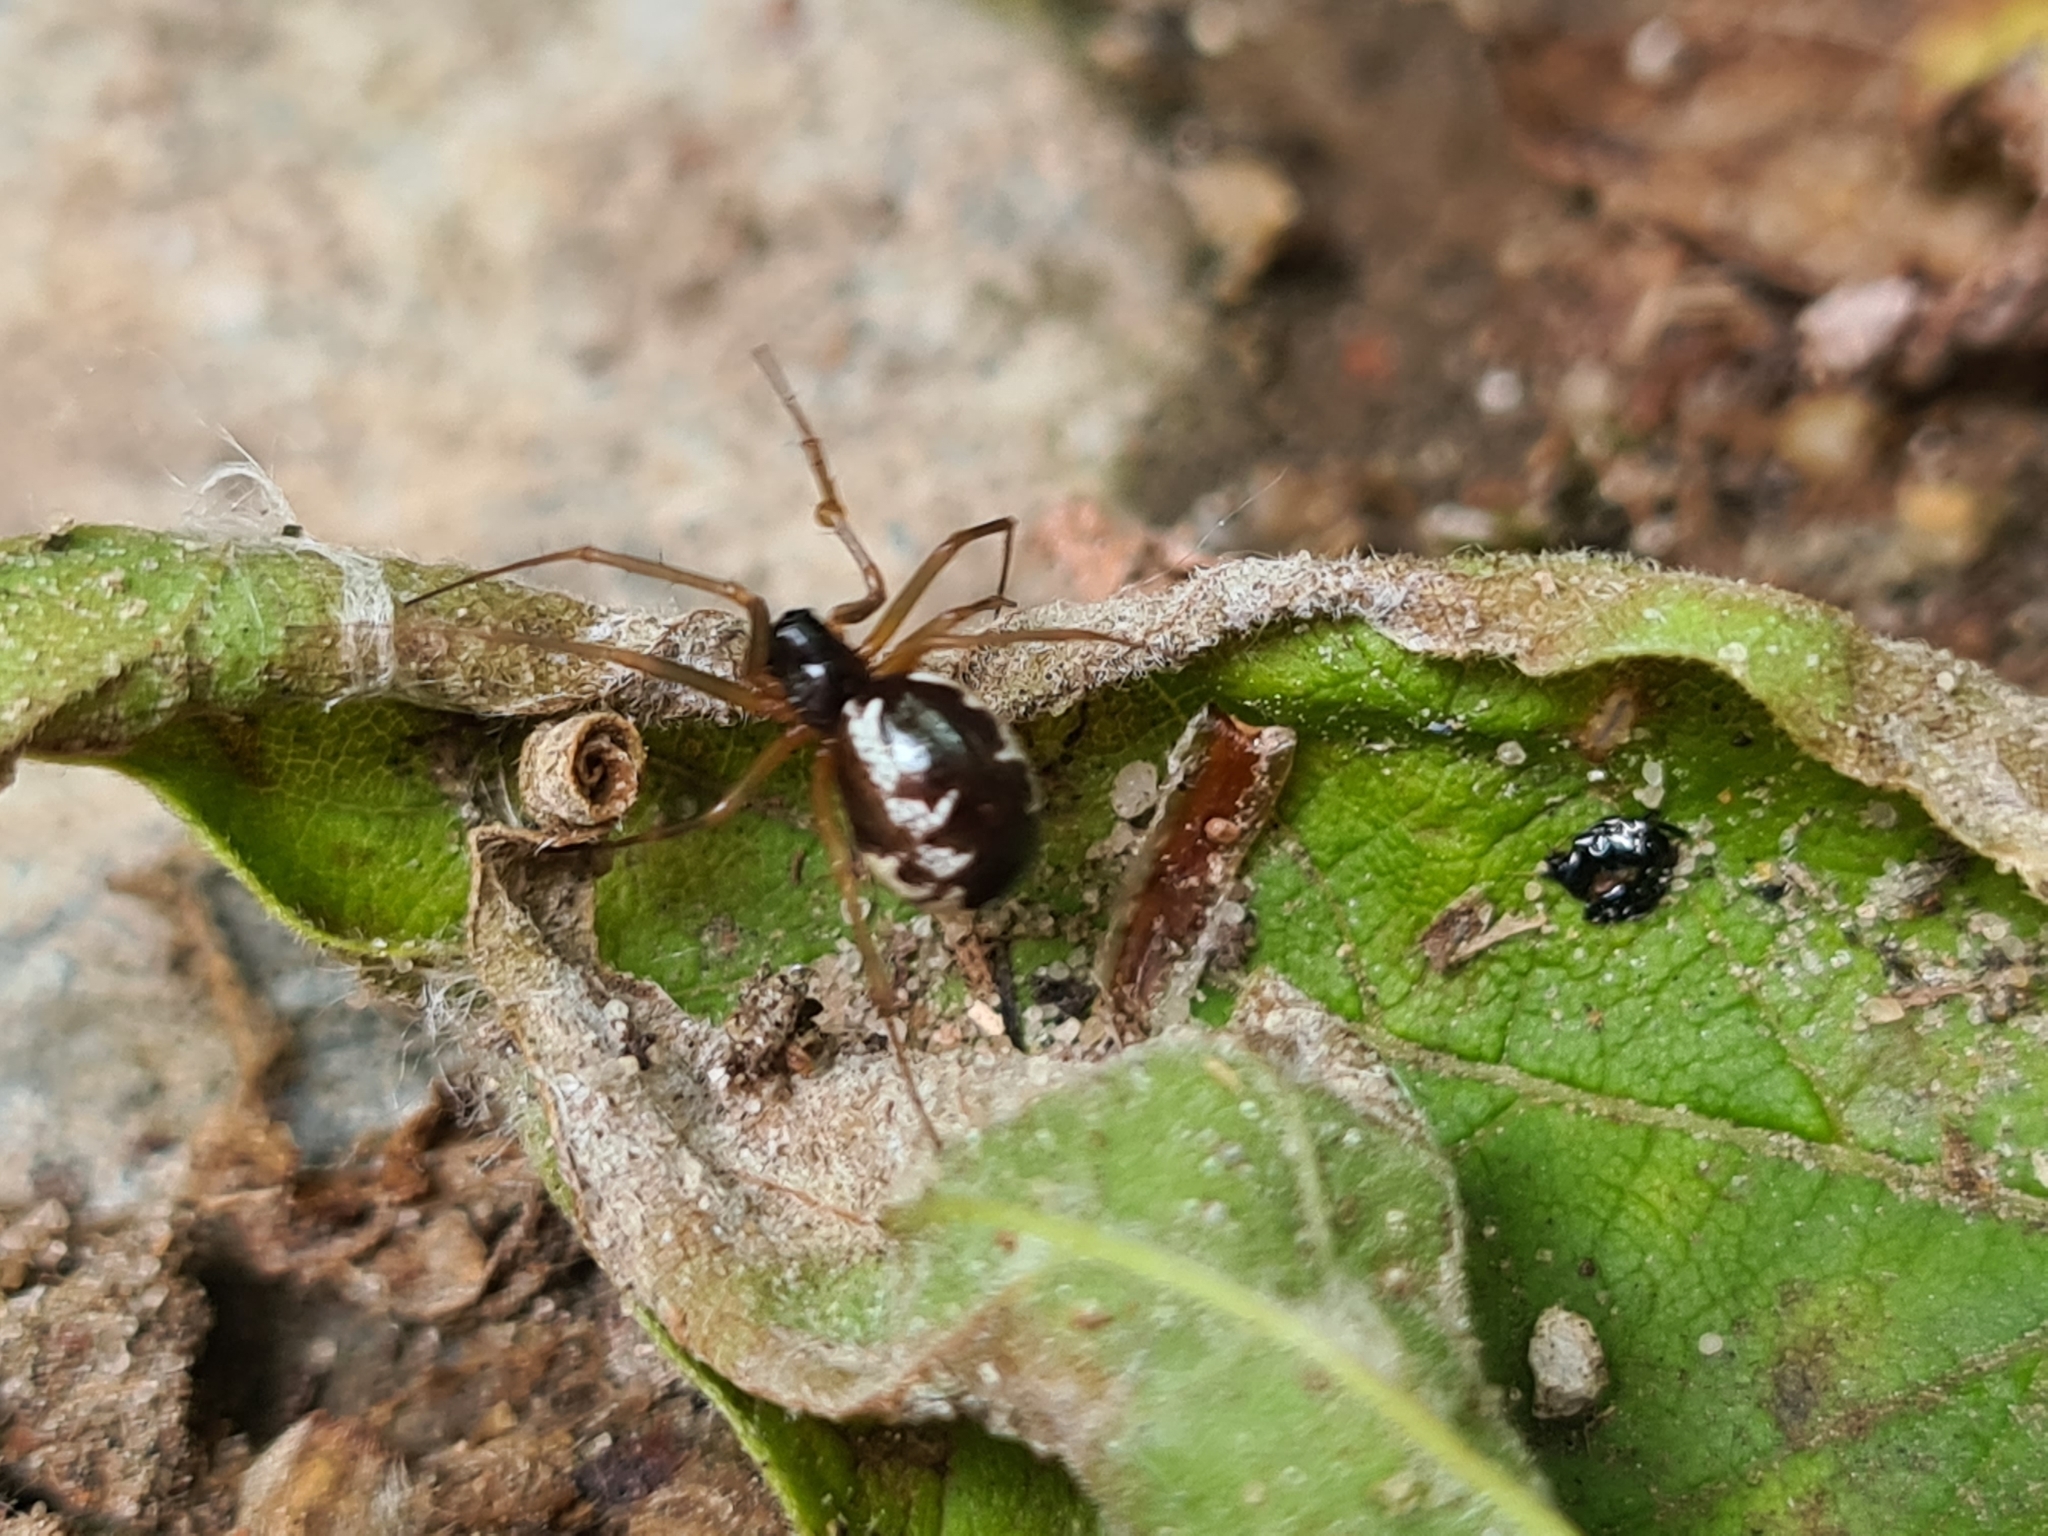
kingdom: Animalia
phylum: Arthropoda
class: Arachnida
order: Araneae
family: Linyphiidae
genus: Linyphia
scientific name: Linyphia hortensis
